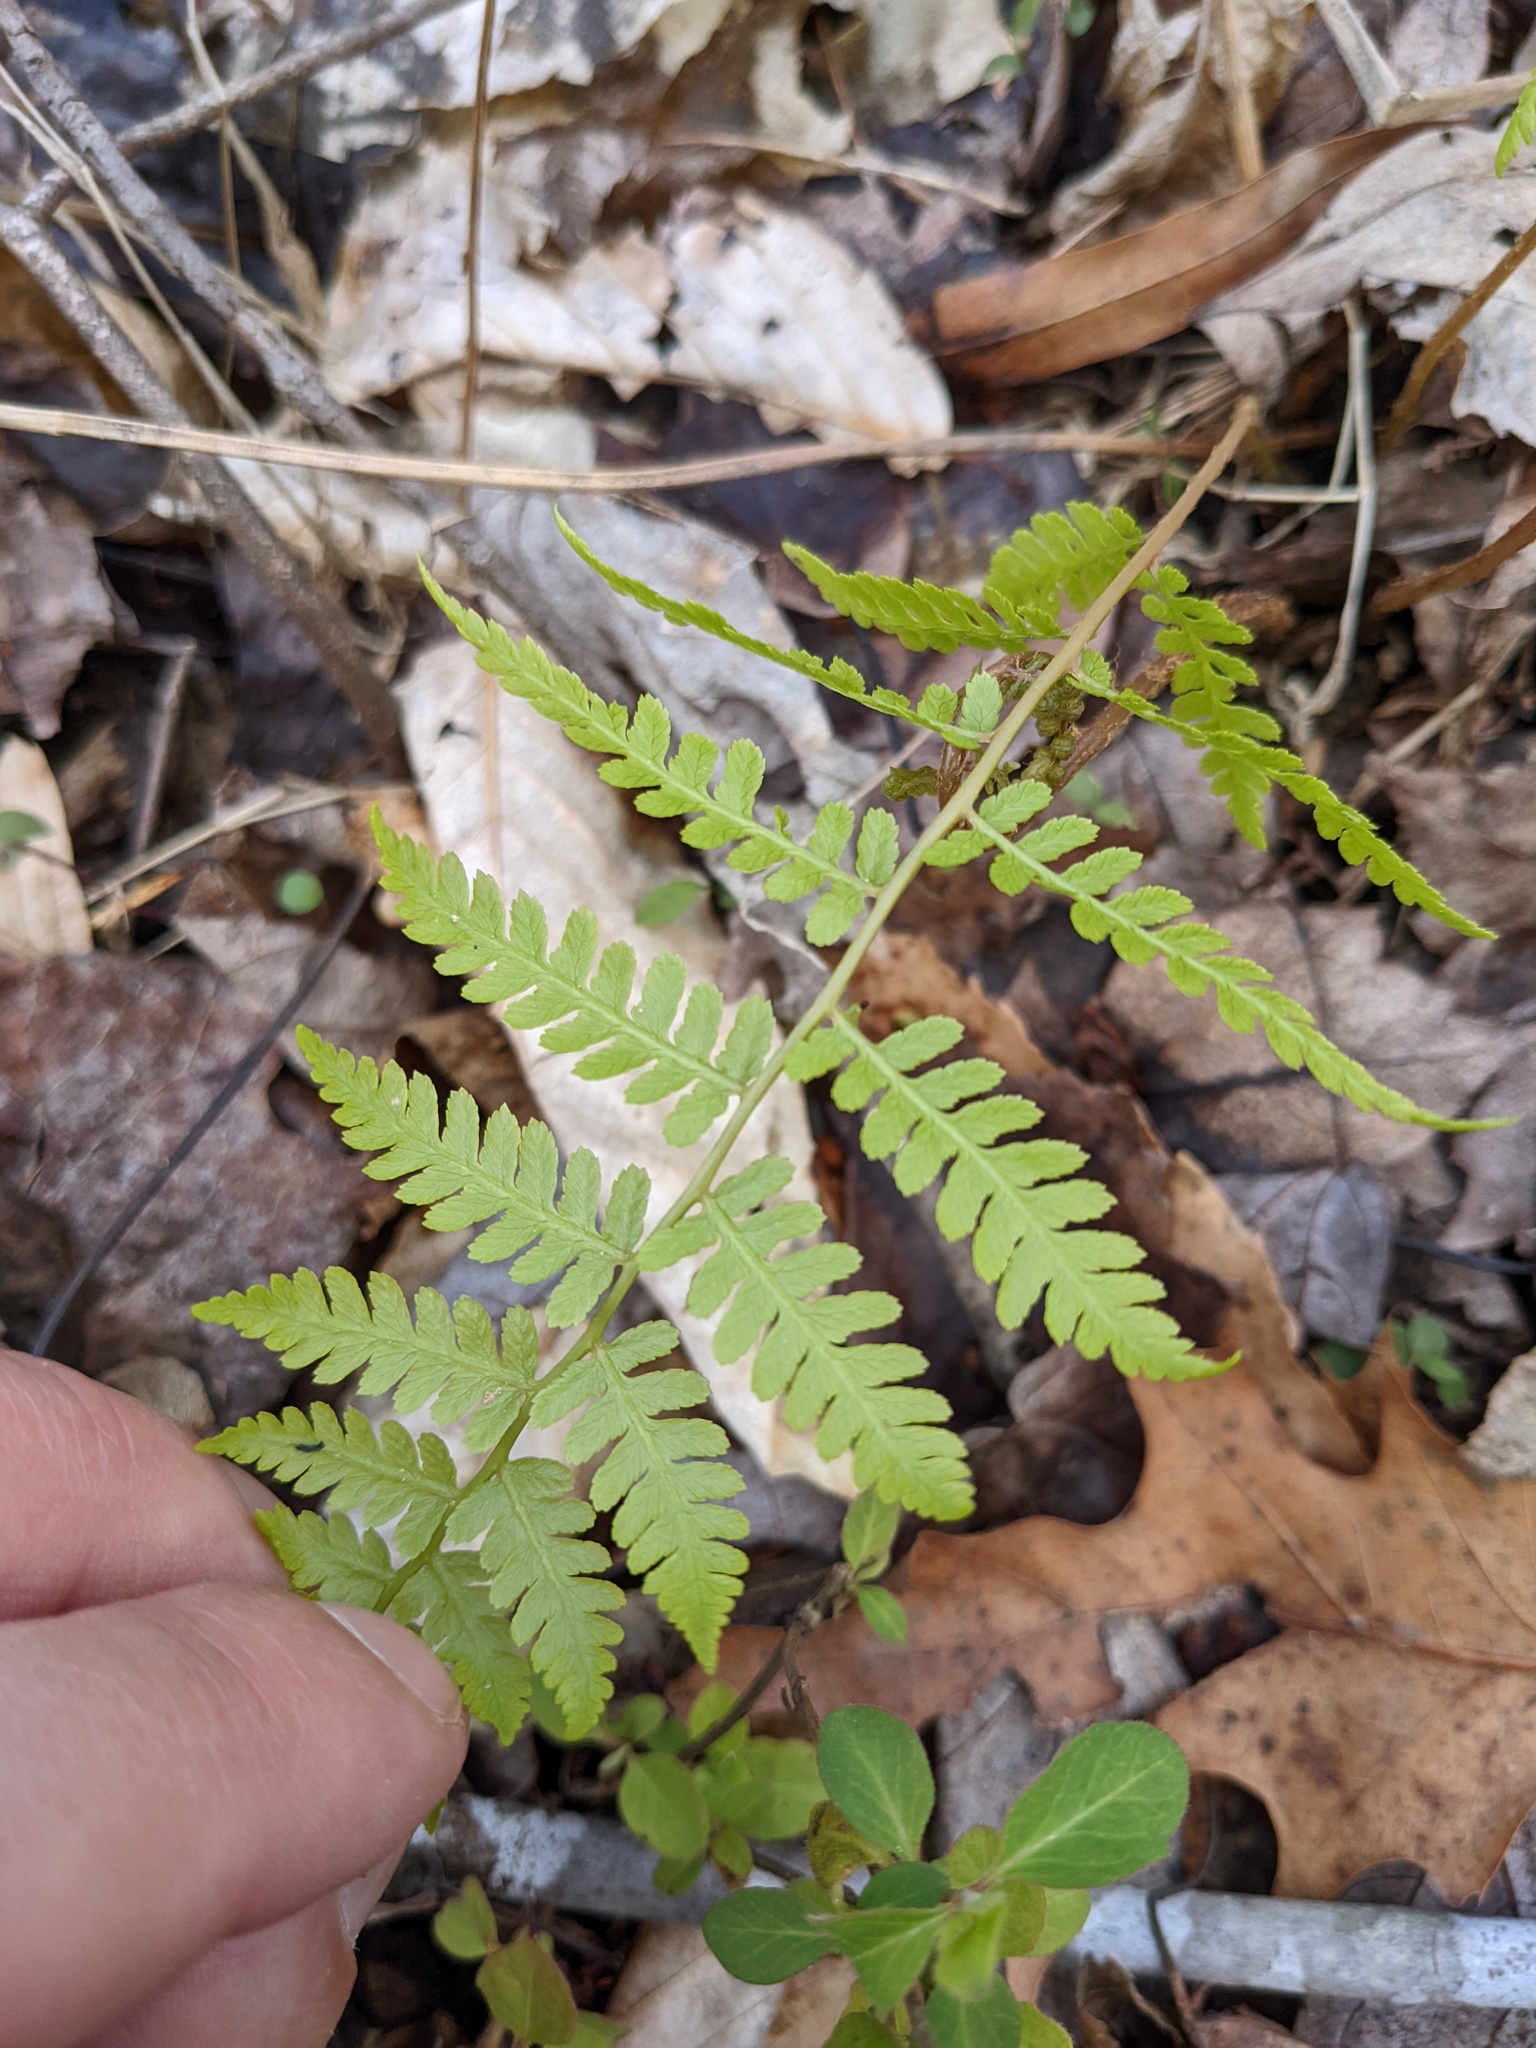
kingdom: Plantae
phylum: Tracheophyta
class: Polypodiopsida
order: Polypodiales
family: Athyriaceae
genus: Athyrium
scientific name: Athyrium asplenioides
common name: Southern lady fern
